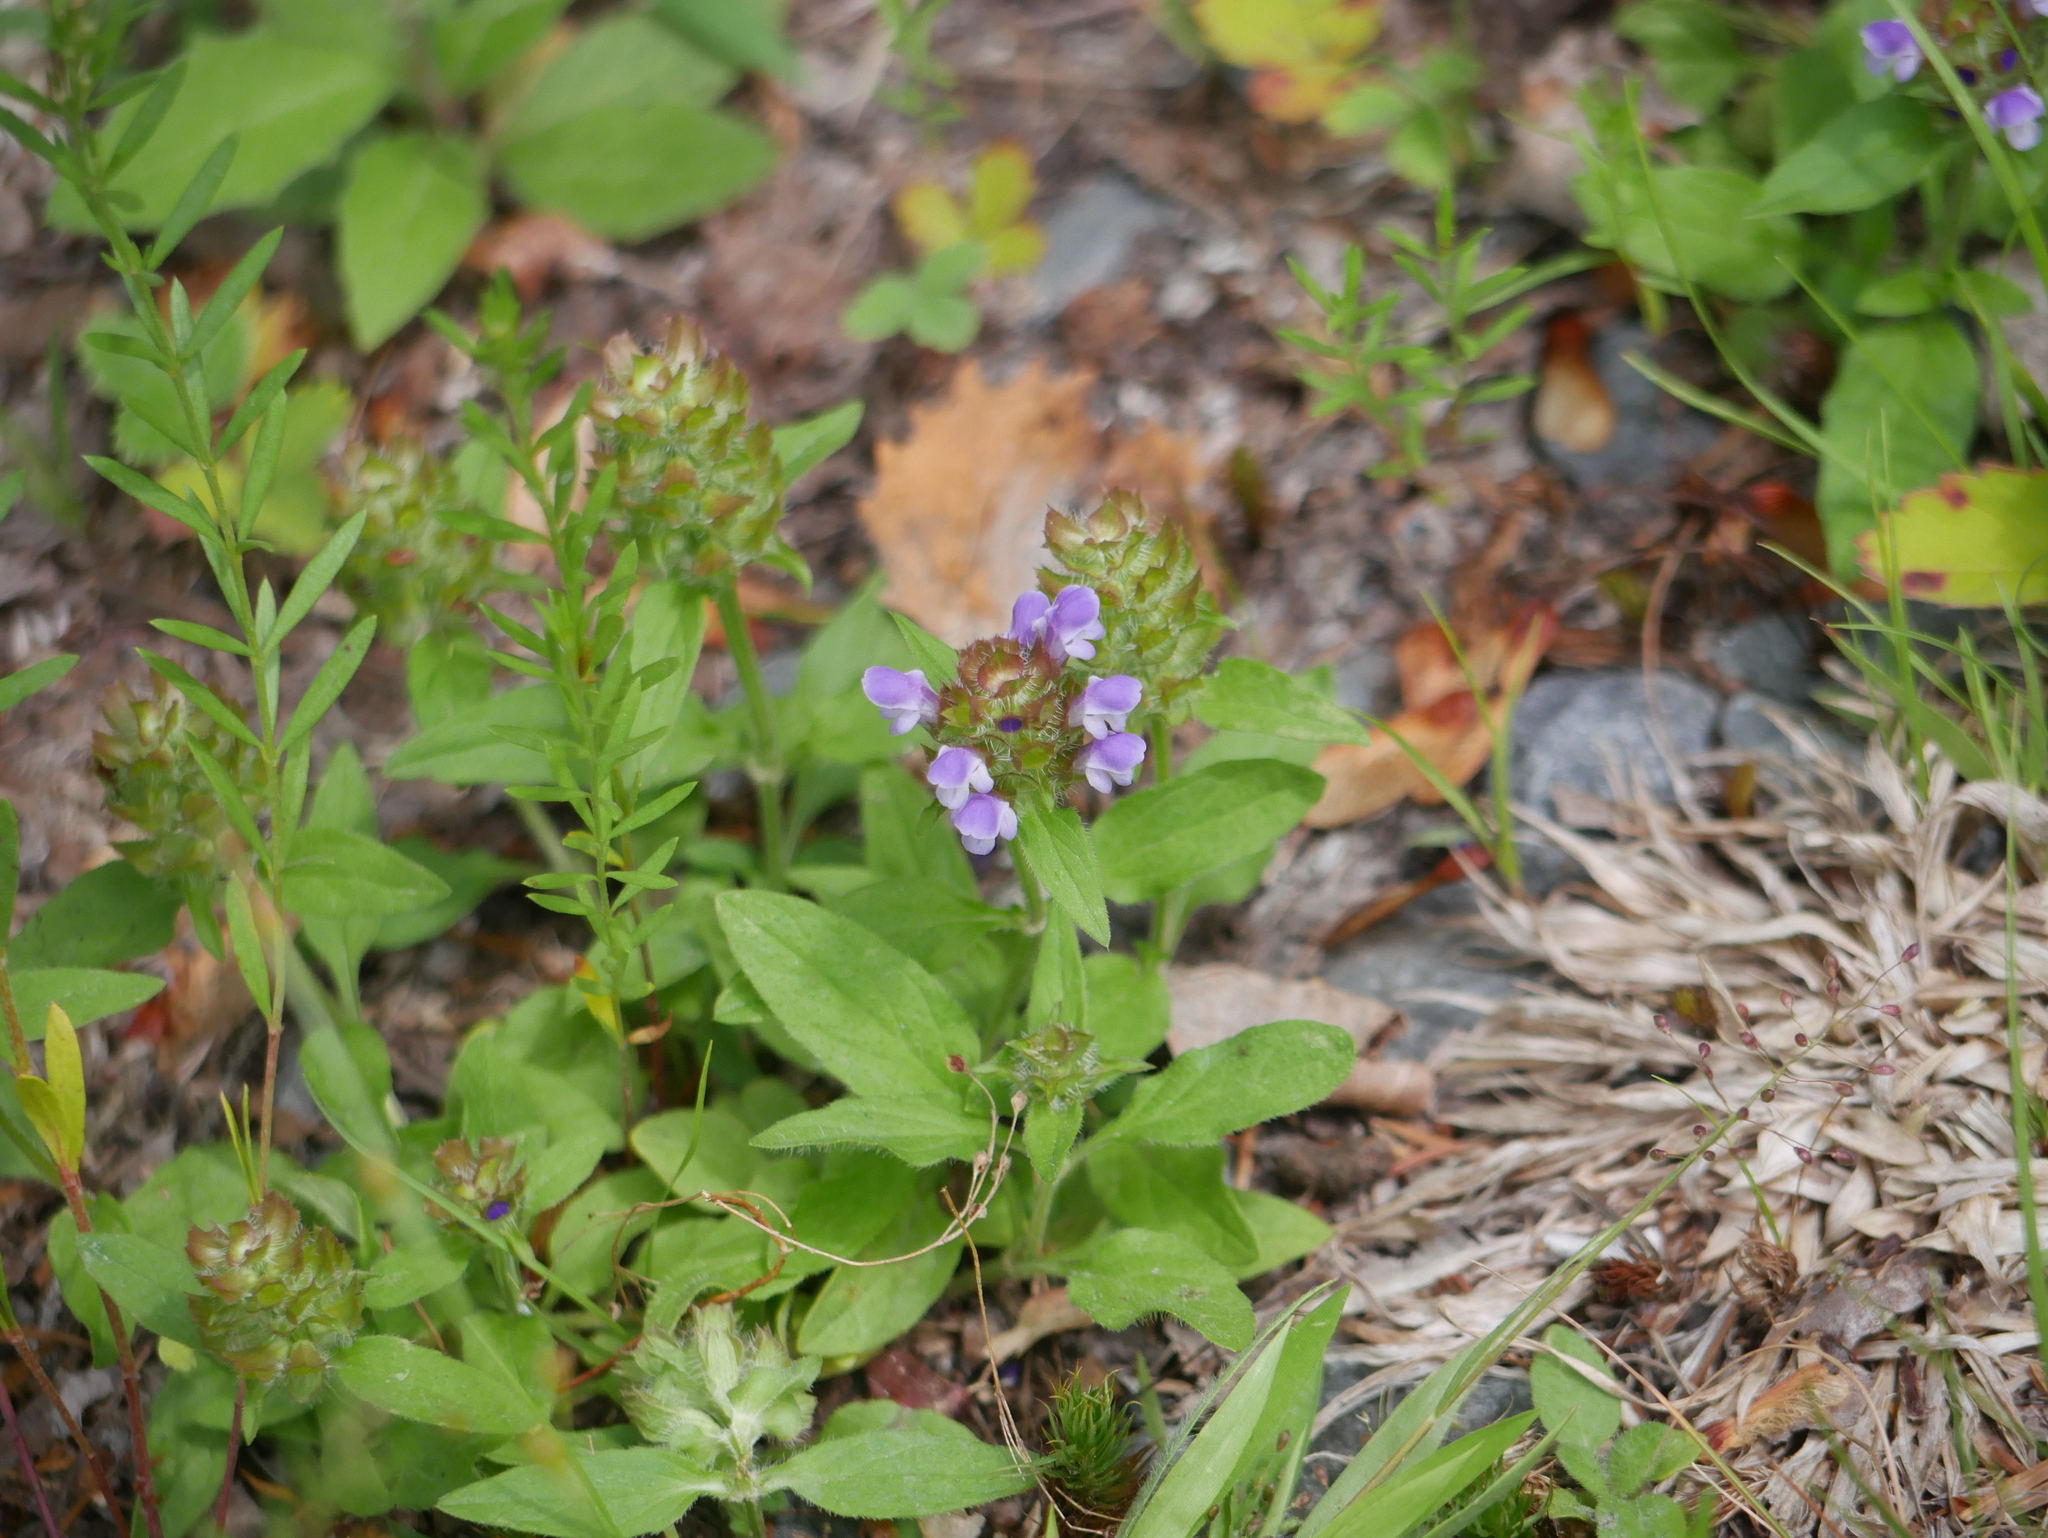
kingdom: Plantae
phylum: Tracheophyta
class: Magnoliopsida
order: Lamiales
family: Lamiaceae
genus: Prunella
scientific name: Prunella vulgaris
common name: Heal-all
